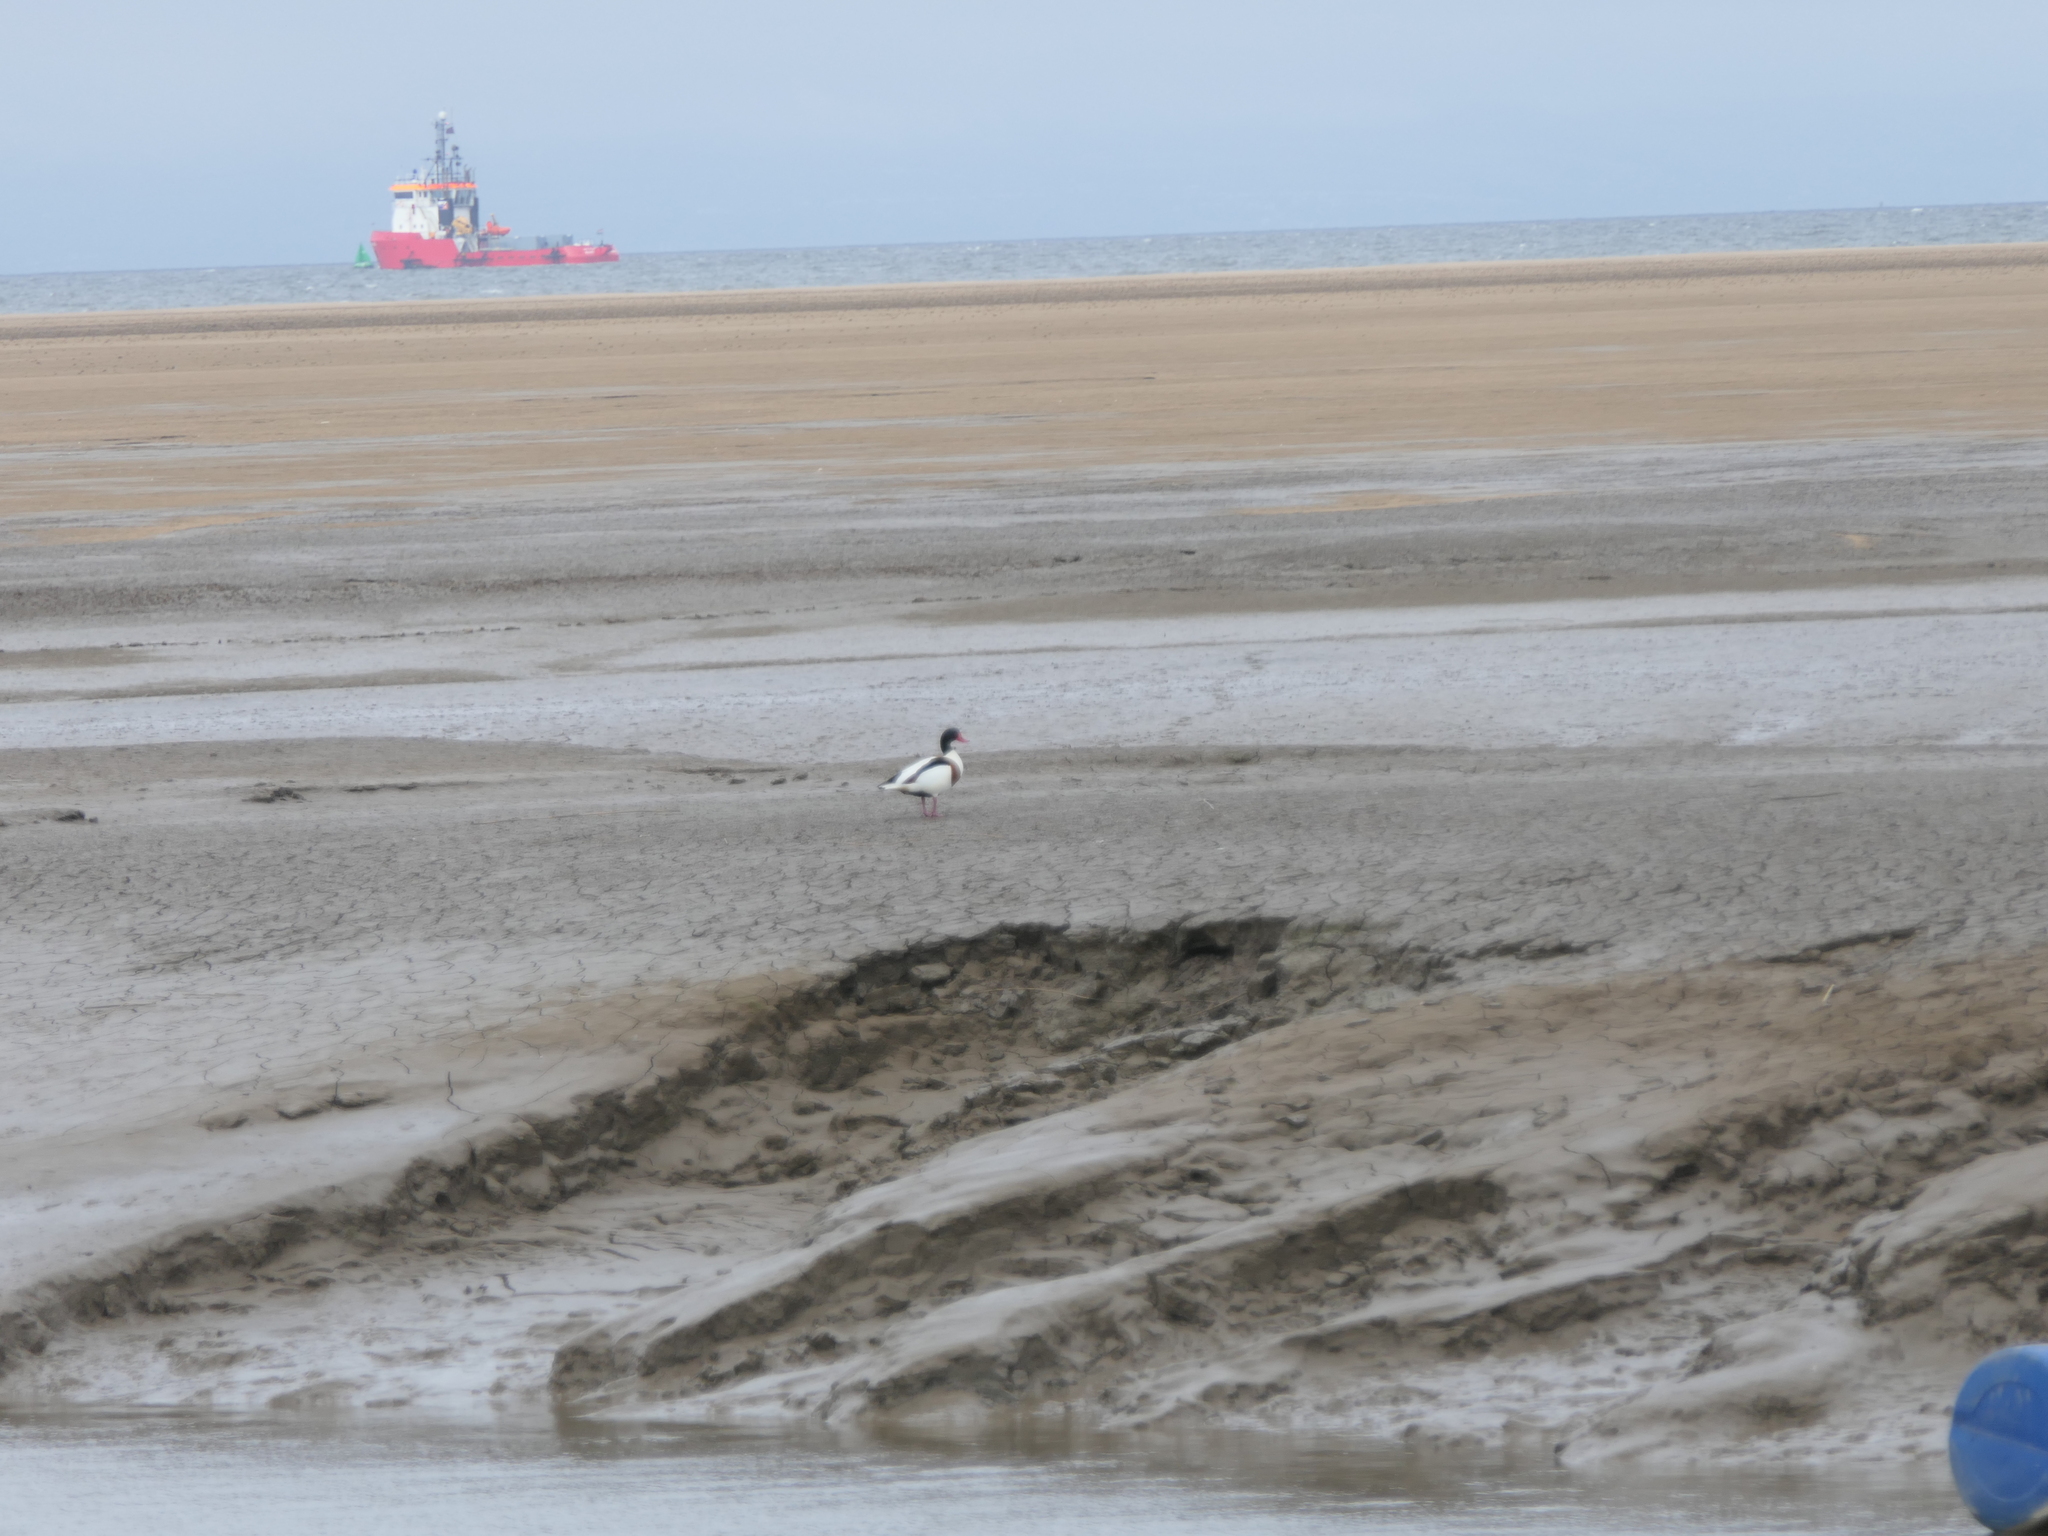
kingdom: Animalia
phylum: Chordata
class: Aves
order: Anseriformes
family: Anatidae
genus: Tadorna
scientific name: Tadorna tadorna
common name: Common shelduck
